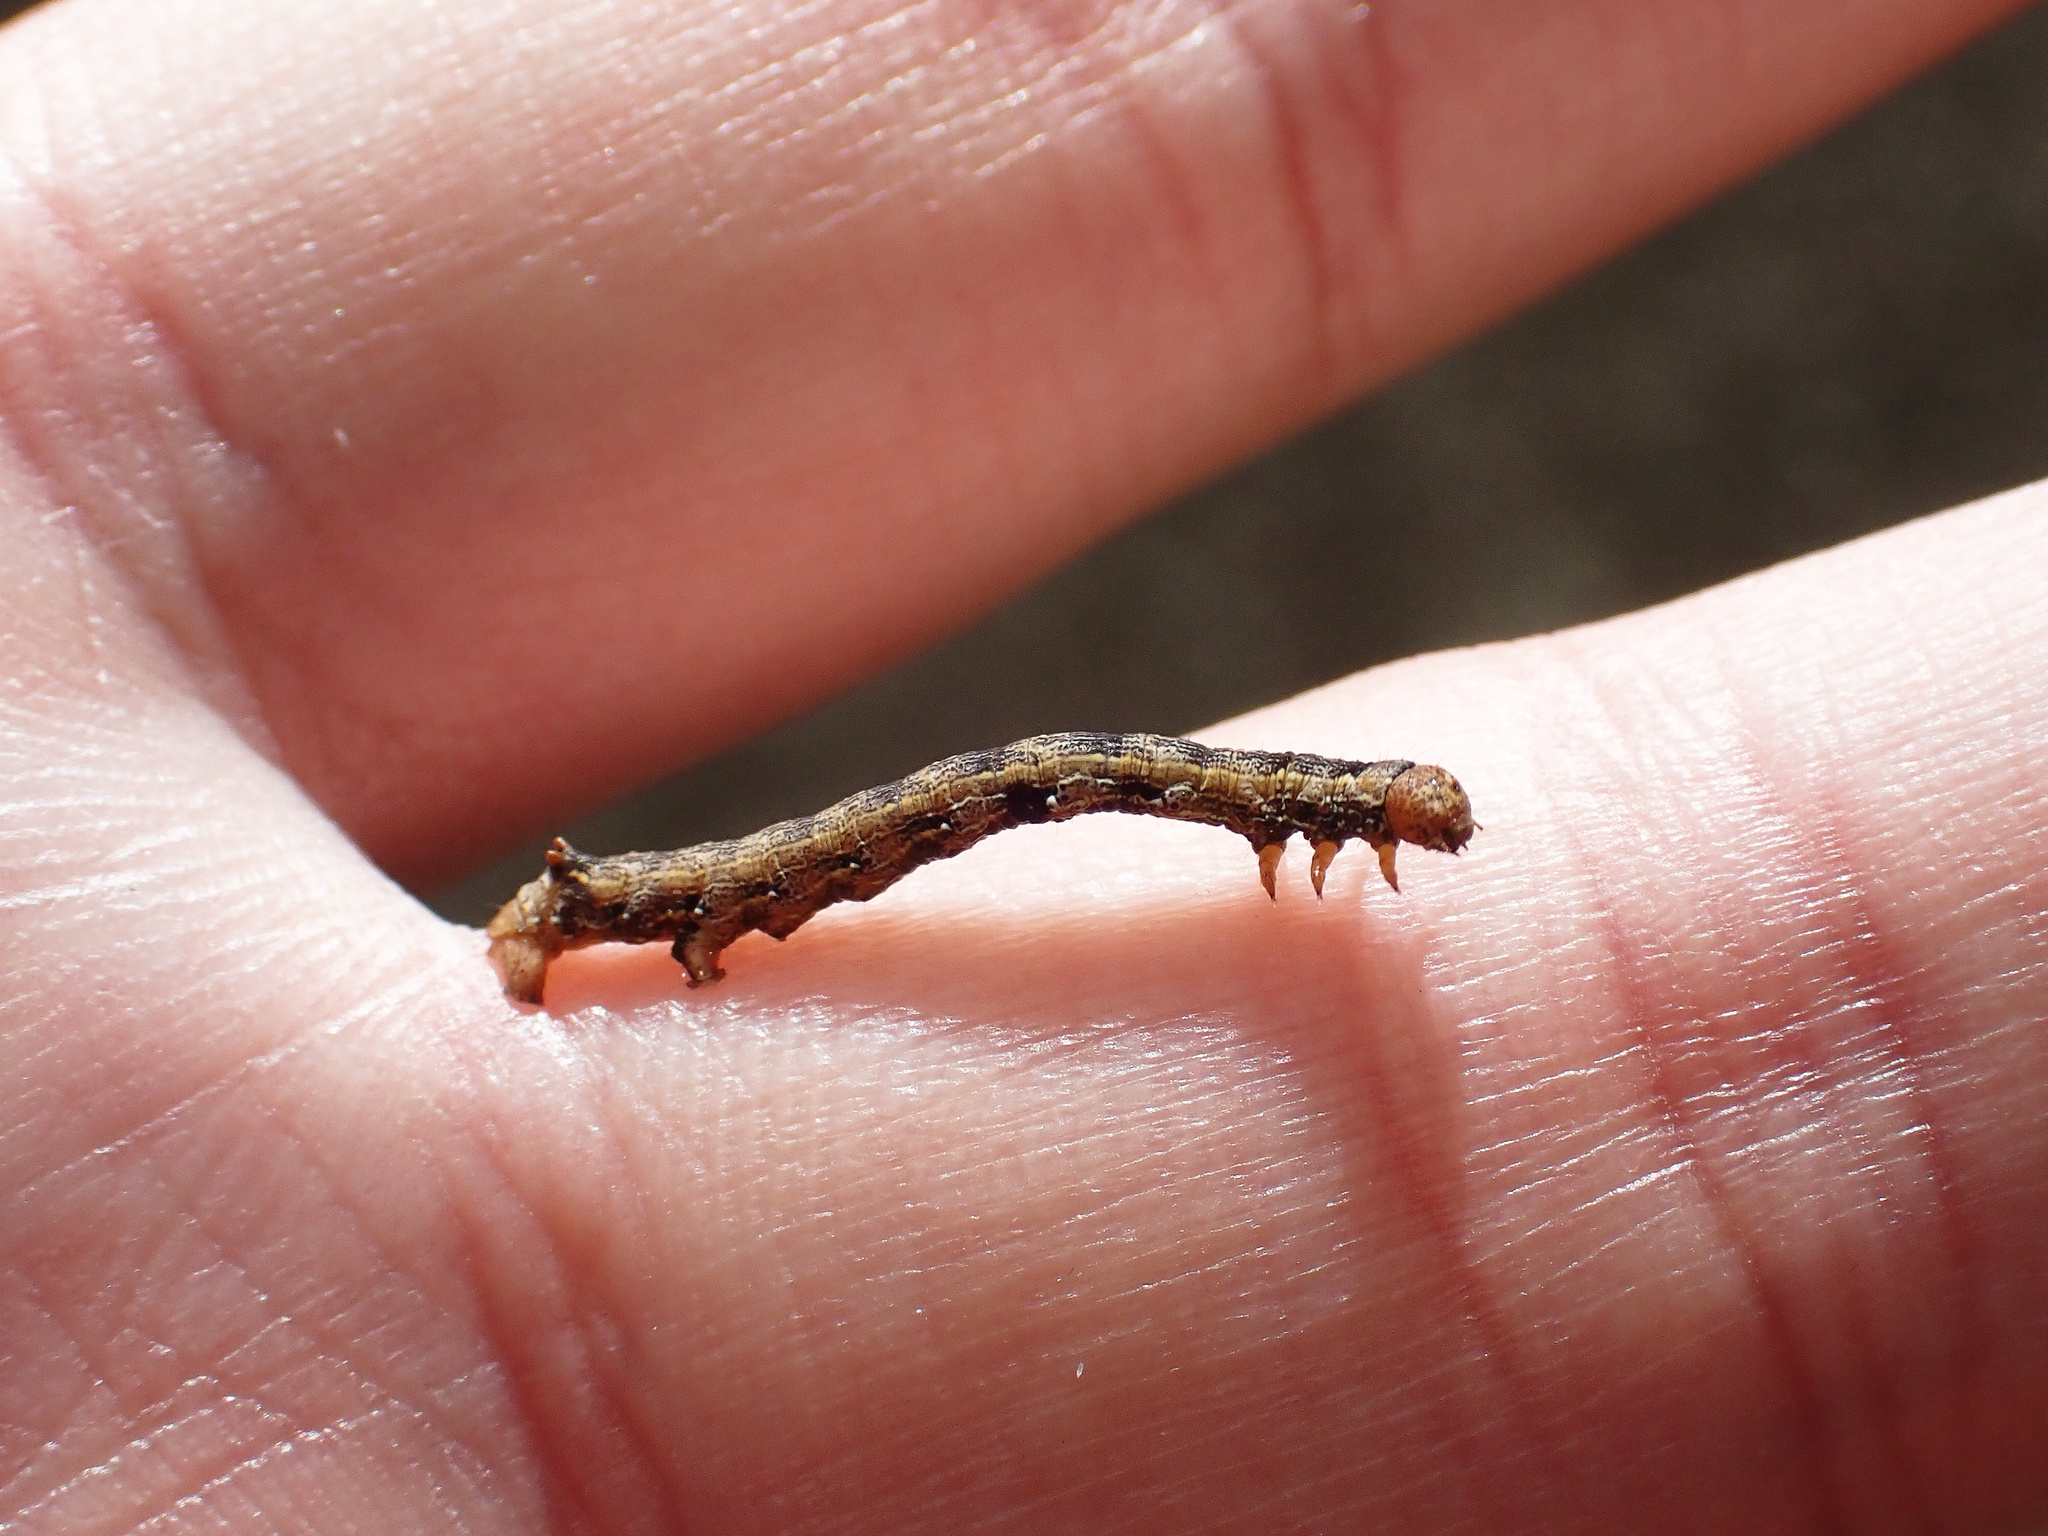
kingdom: Animalia
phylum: Arthropoda
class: Insecta
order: Lepidoptera
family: Geometridae
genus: Colotois
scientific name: Colotois pennaria
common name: Feathered thorn
